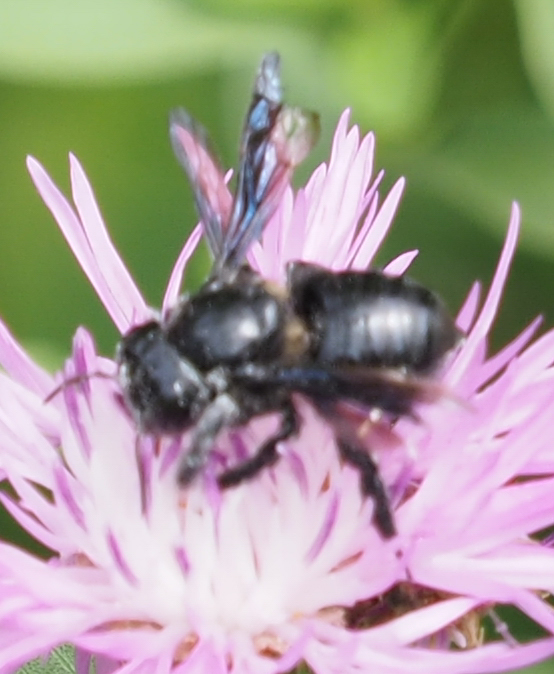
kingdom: Animalia
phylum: Arthropoda
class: Insecta
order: Hymenoptera
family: Megachilidae
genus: Megachile
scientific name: Megachile xylocopoides
